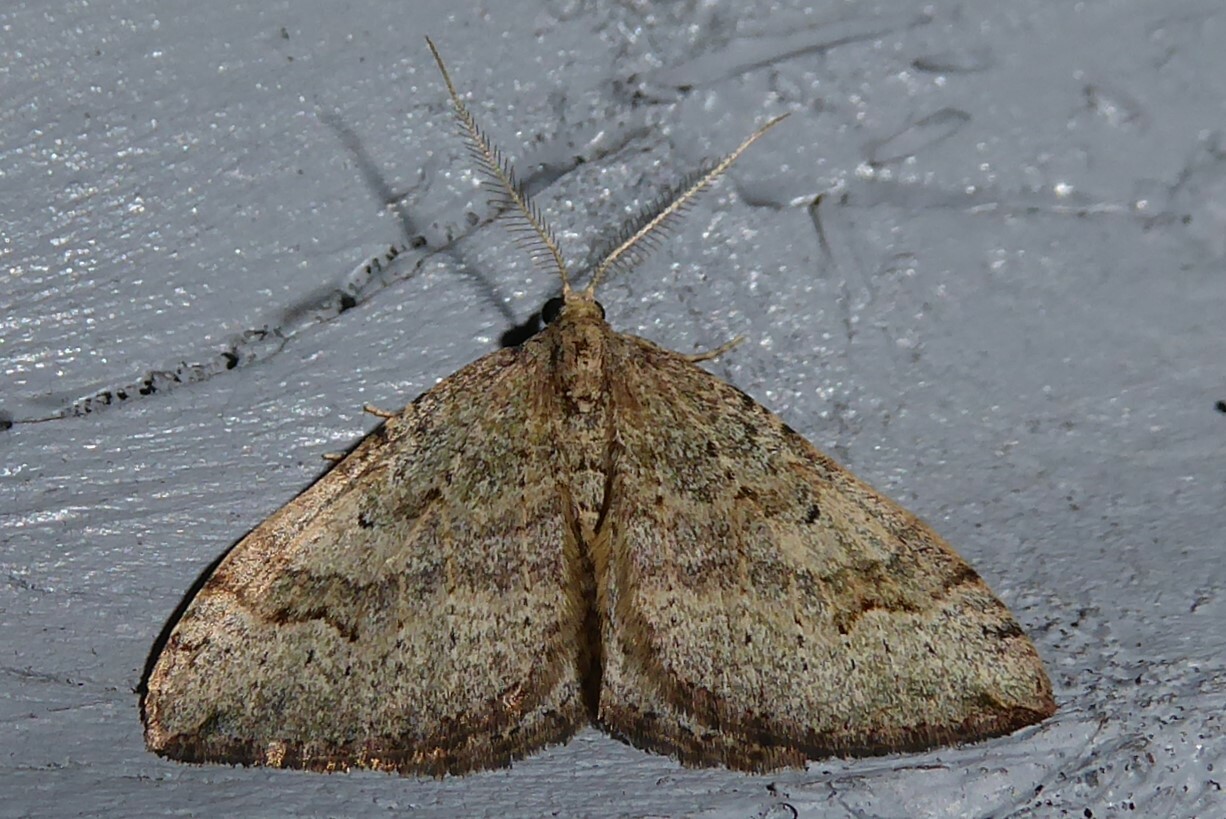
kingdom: Animalia
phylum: Arthropoda
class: Insecta
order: Lepidoptera
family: Geometridae
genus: Epyaxa
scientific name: Epyaxa rosearia
